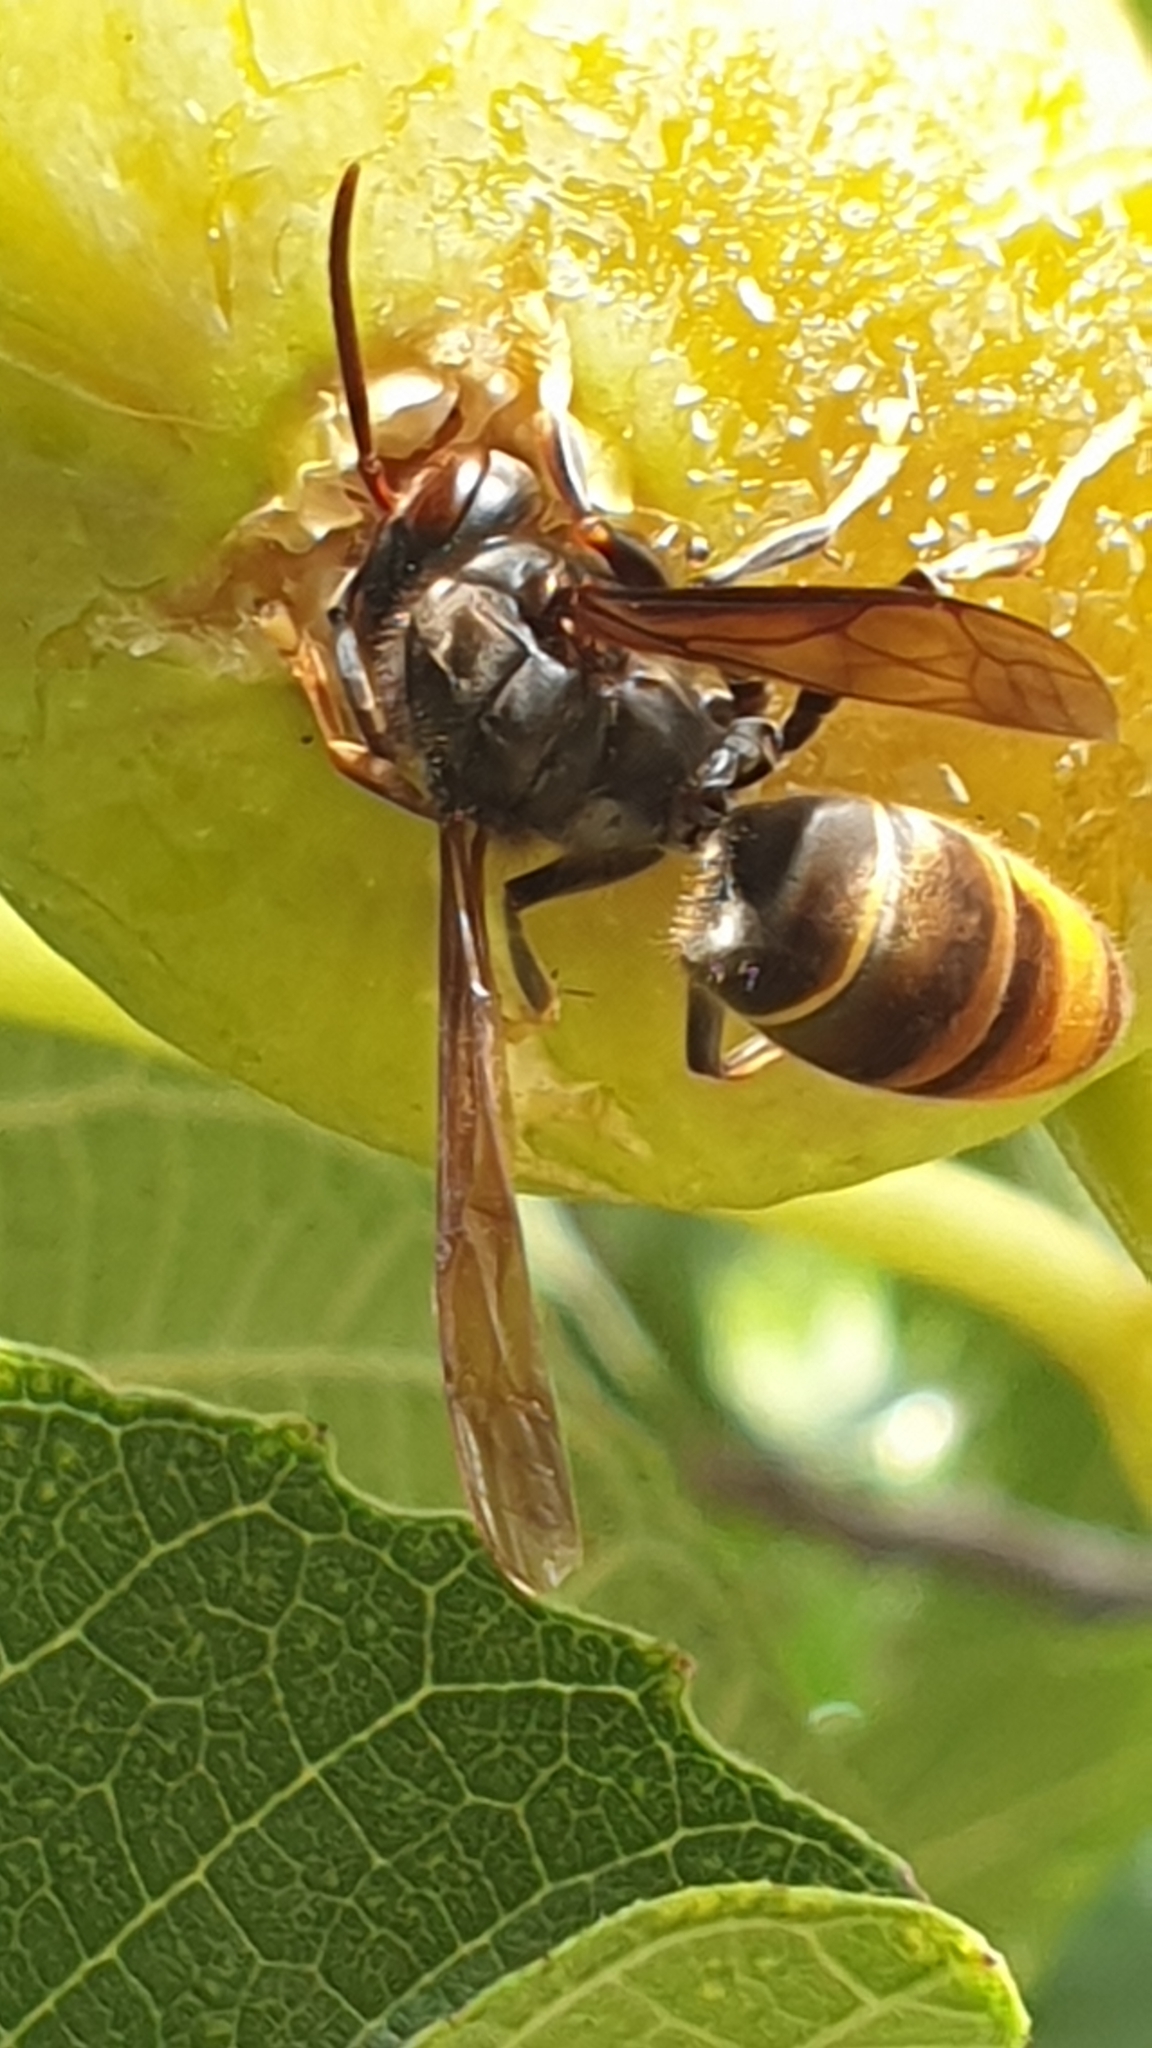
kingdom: Animalia
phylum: Arthropoda
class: Insecta
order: Hymenoptera
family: Vespidae
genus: Vespa
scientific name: Vespa velutina
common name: Asian hornet
